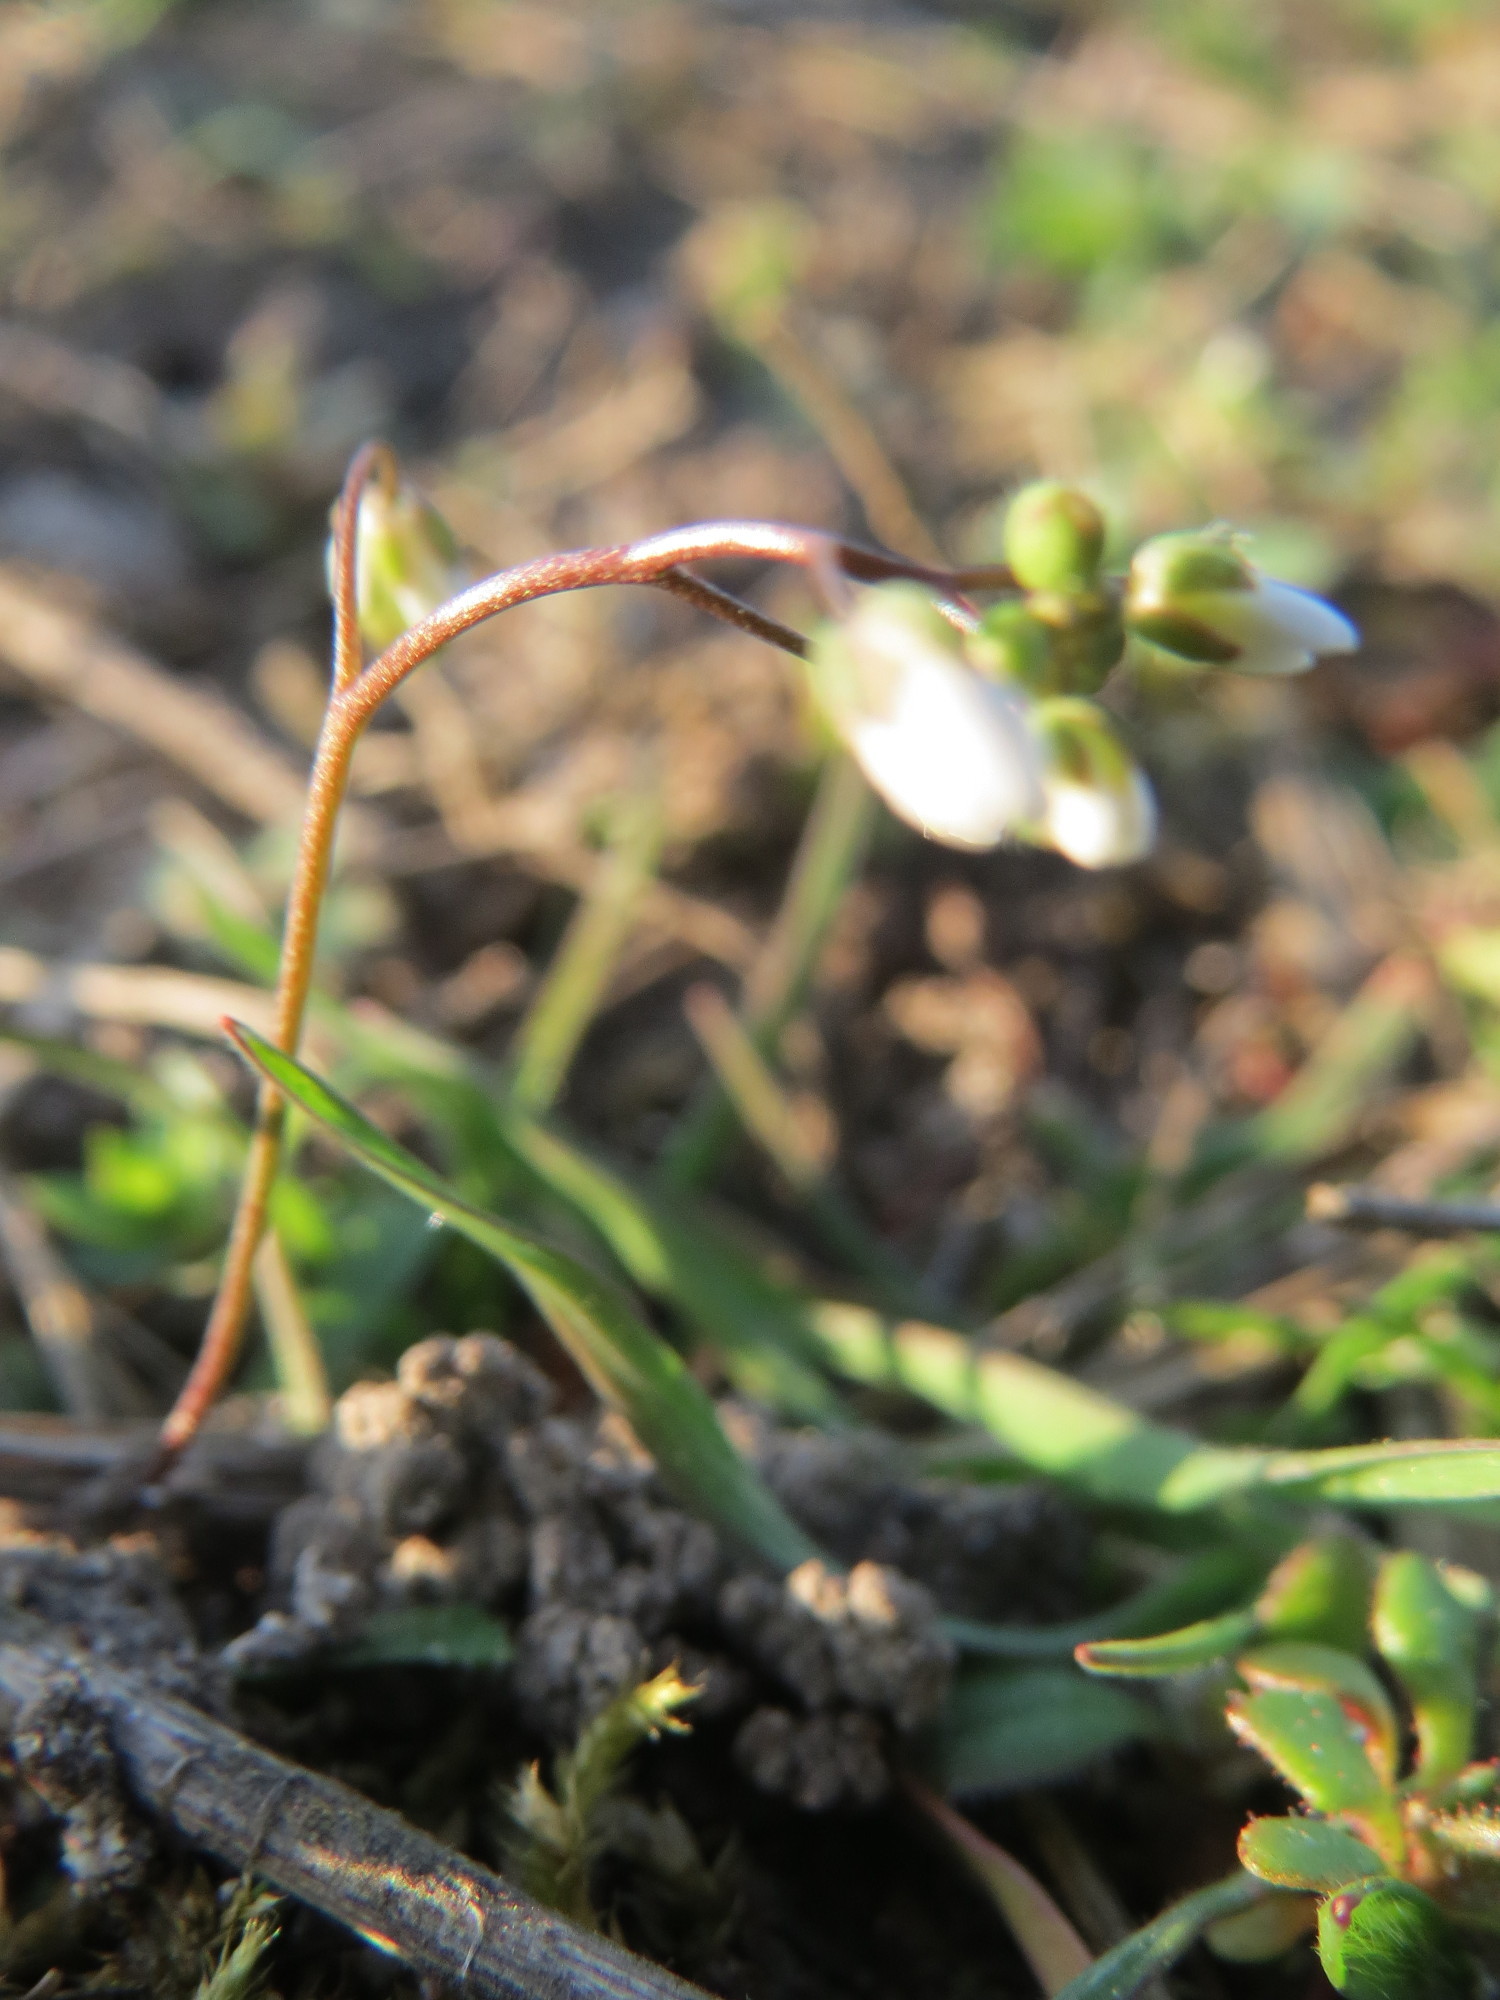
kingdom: Plantae
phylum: Tracheophyta
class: Magnoliopsida
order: Brassicales
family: Brassicaceae
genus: Draba
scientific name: Draba verna
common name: Spring draba
